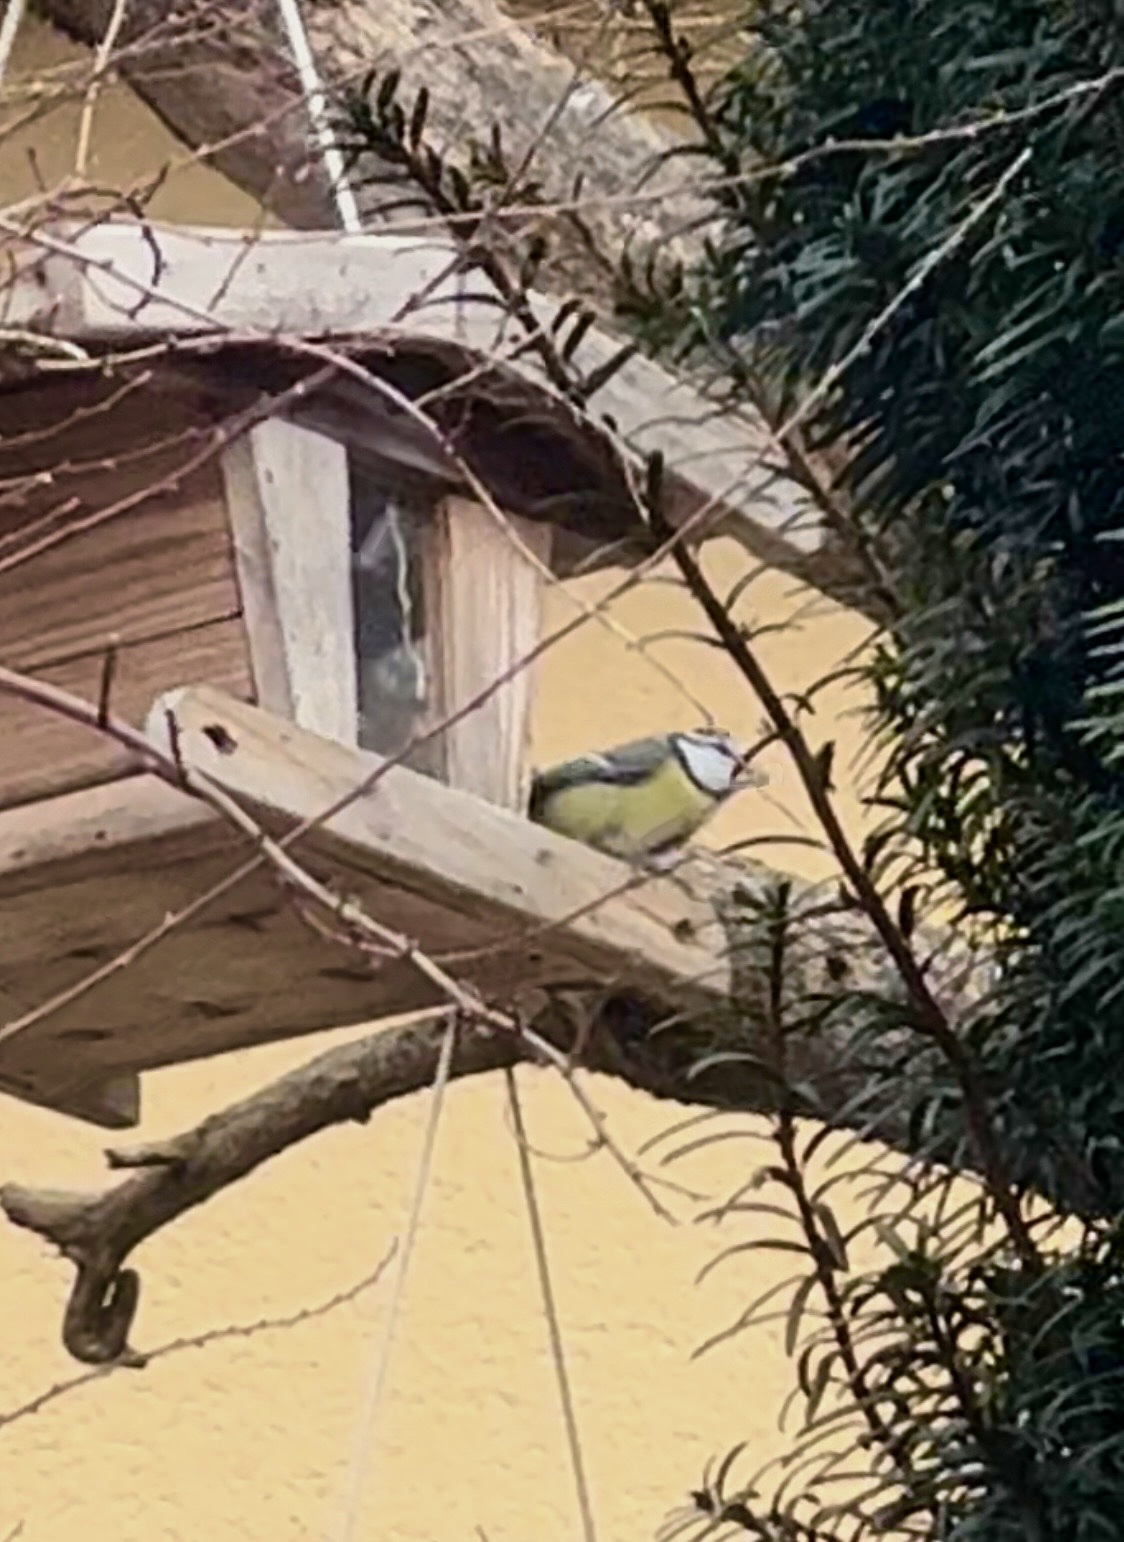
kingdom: Animalia
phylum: Chordata
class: Aves
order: Passeriformes
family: Paridae
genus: Cyanistes
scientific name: Cyanistes caeruleus
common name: Eurasian blue tit
